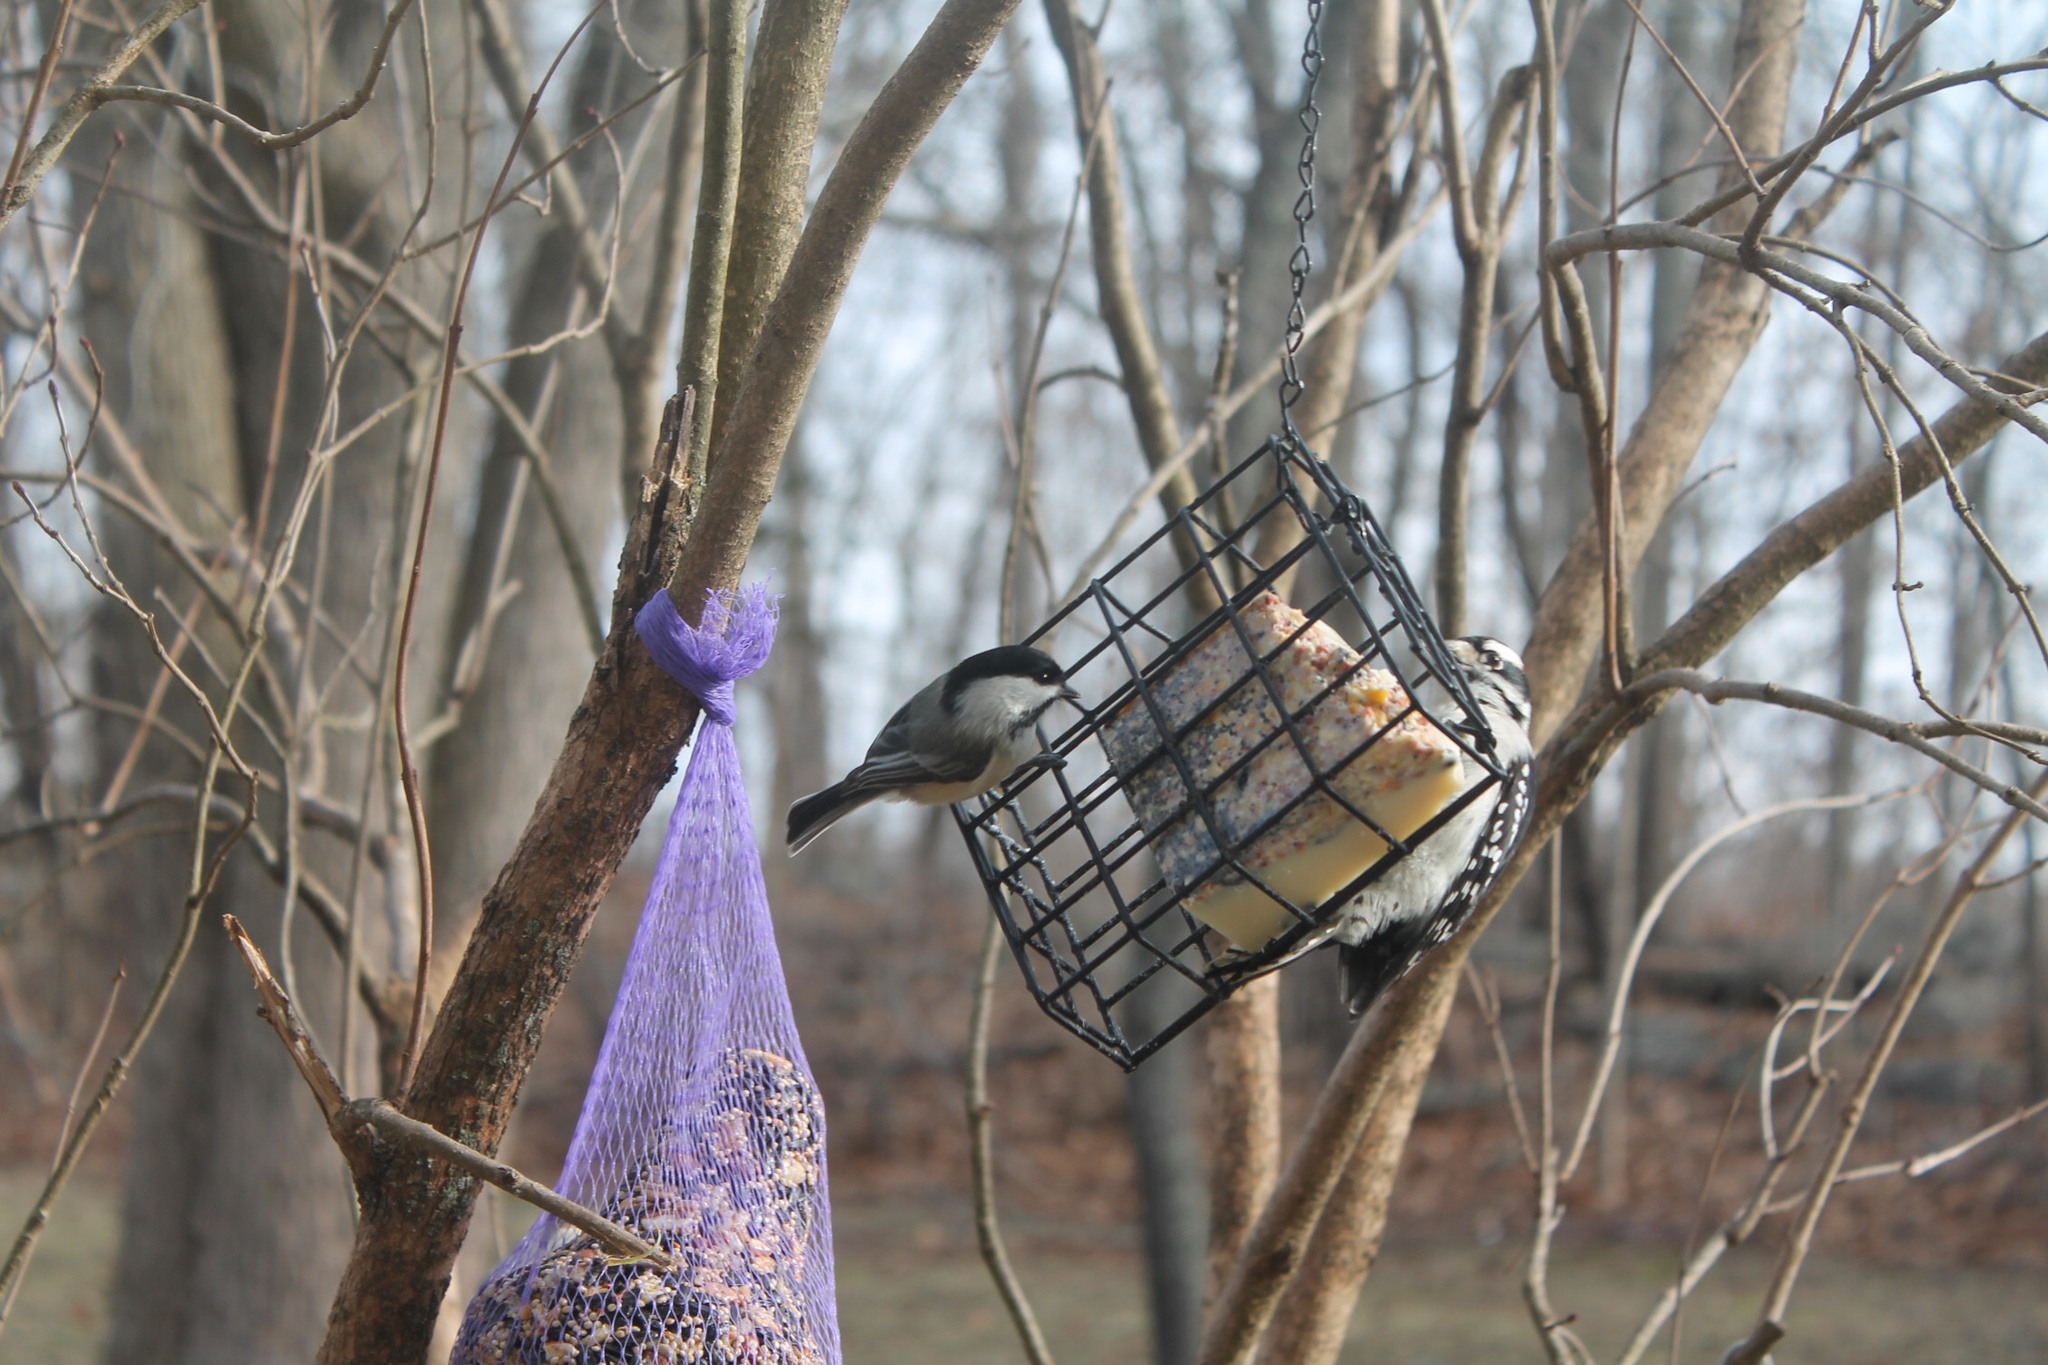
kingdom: Animalia
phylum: Chordata
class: Aves
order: Passeriformes
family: Paridae
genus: Poecile
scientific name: Poecile atricapillus
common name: Black-capped chickadee
